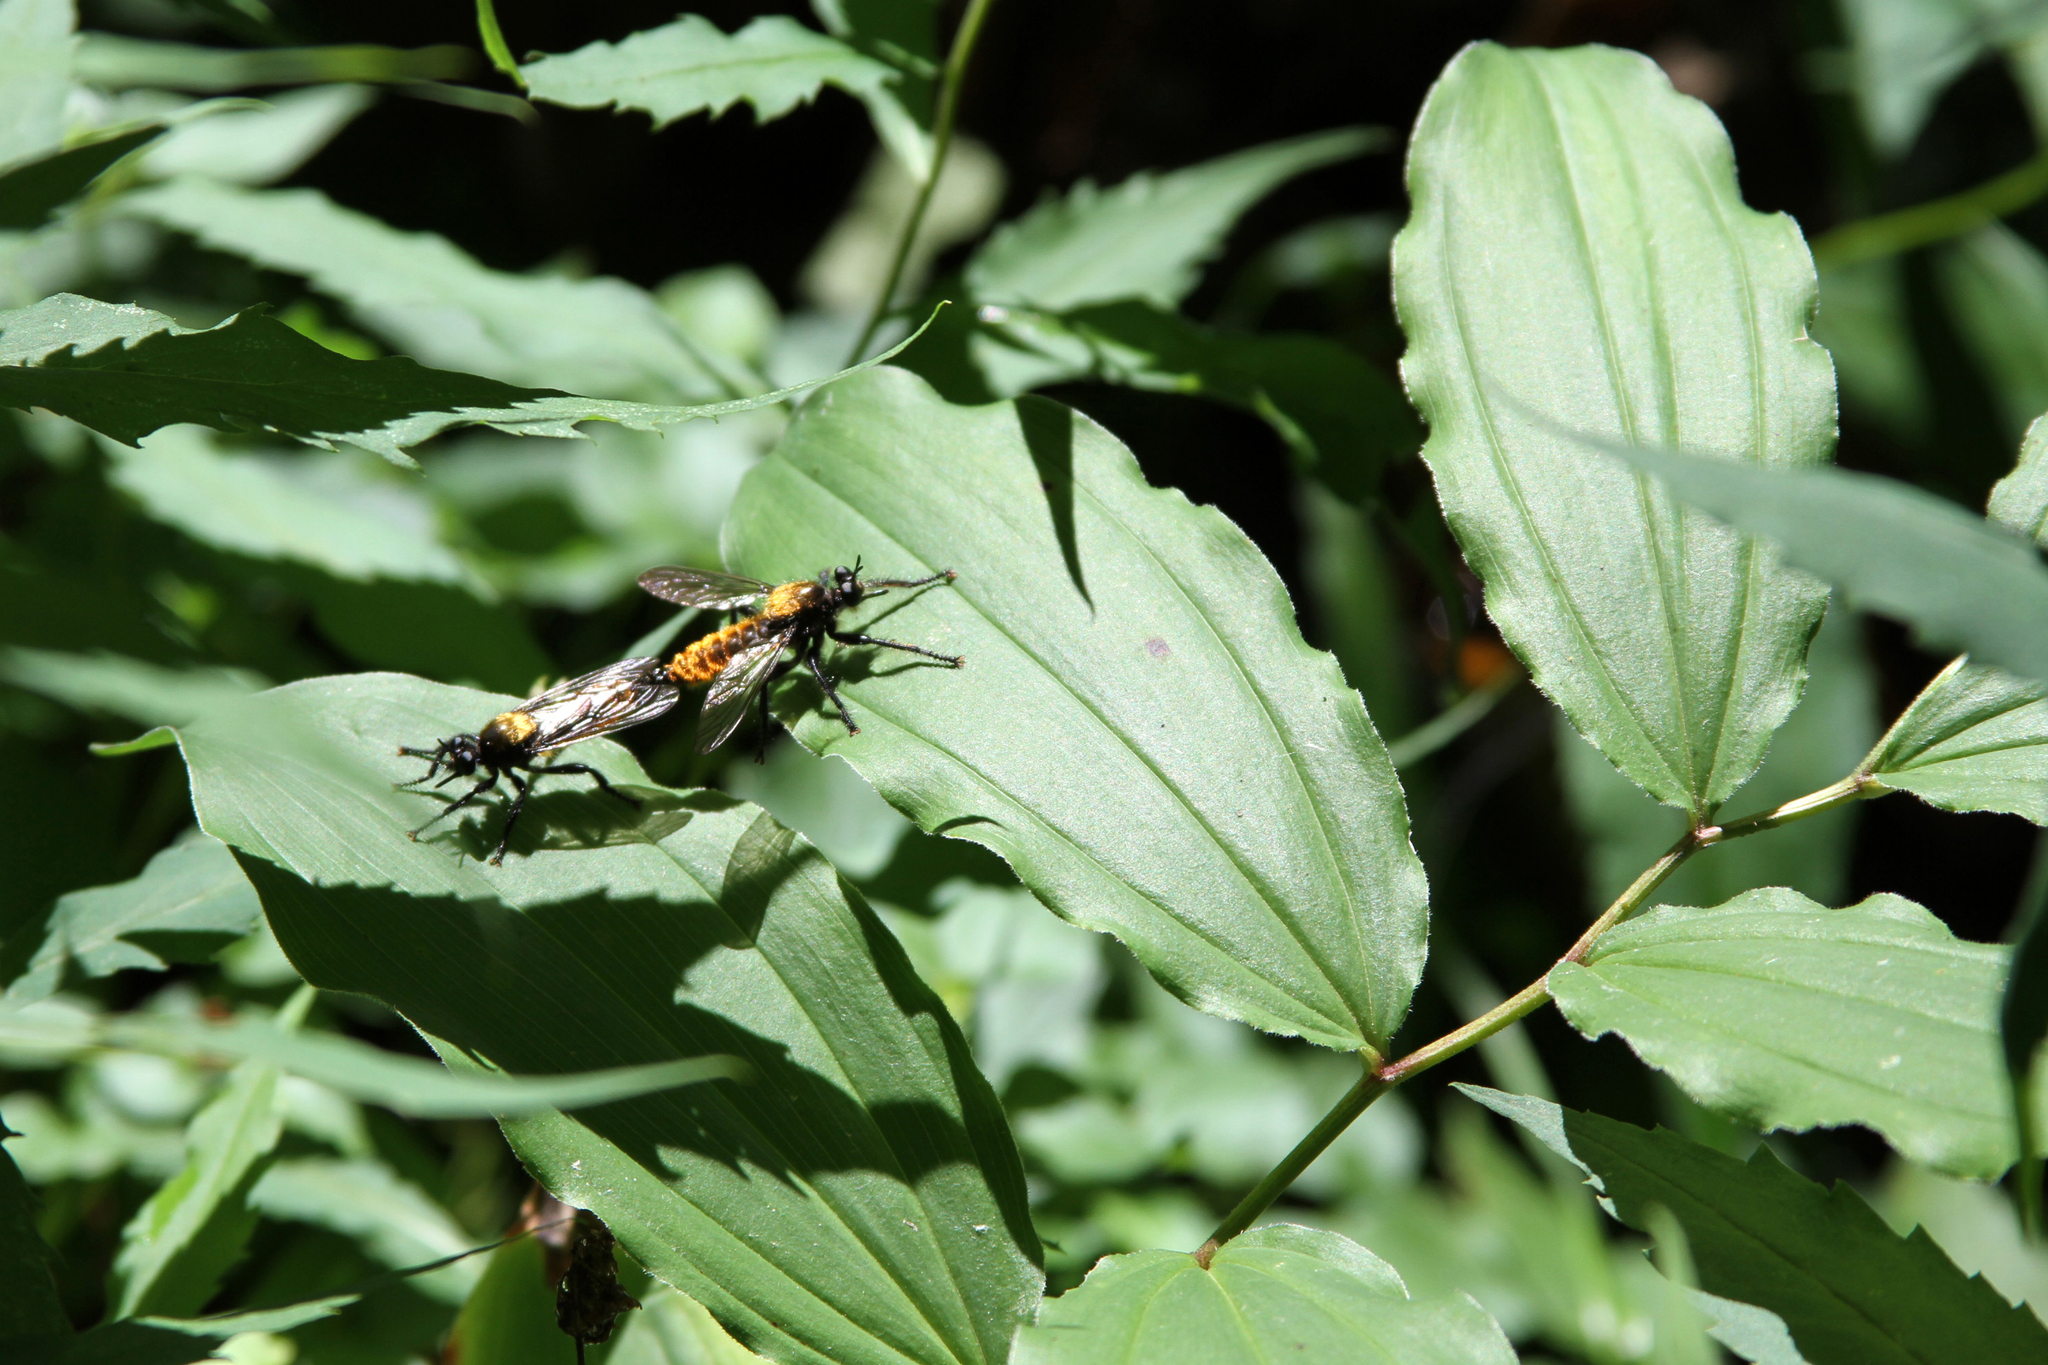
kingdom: Plantae
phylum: Tracheophyta
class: Liliopsida
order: Asparagales
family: Asparagaceae
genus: Maianthemum
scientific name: Maianthemum racemosum
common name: False spikenard
